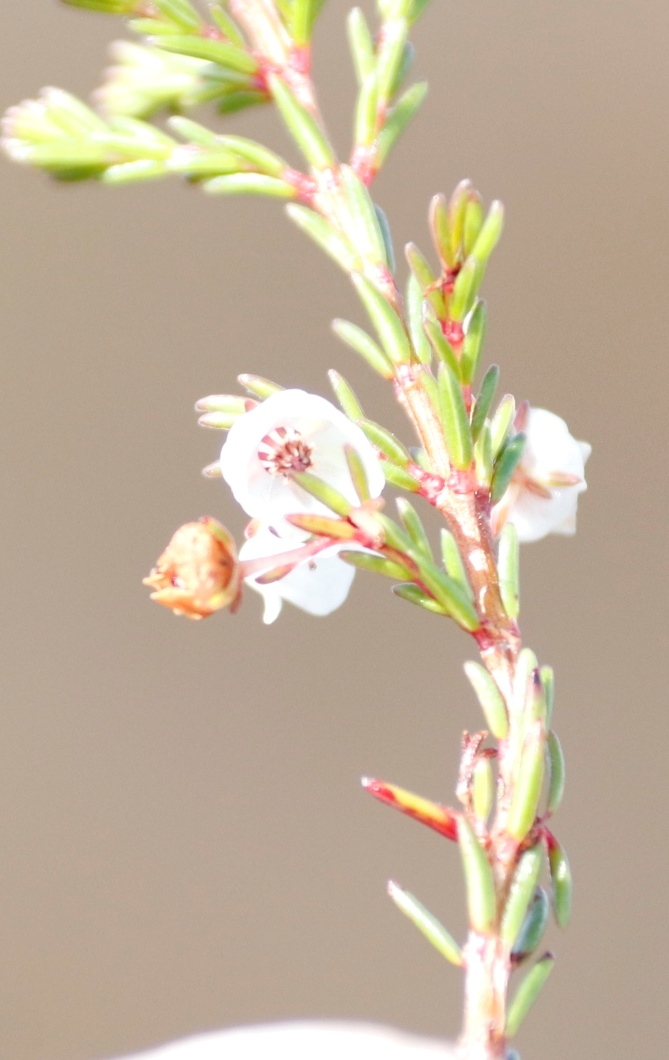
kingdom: Plantae
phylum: Tracheophyta
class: Magnoliopsida
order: Ericales
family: Ericaceae
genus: Erica
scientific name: Erica subdivaricata
